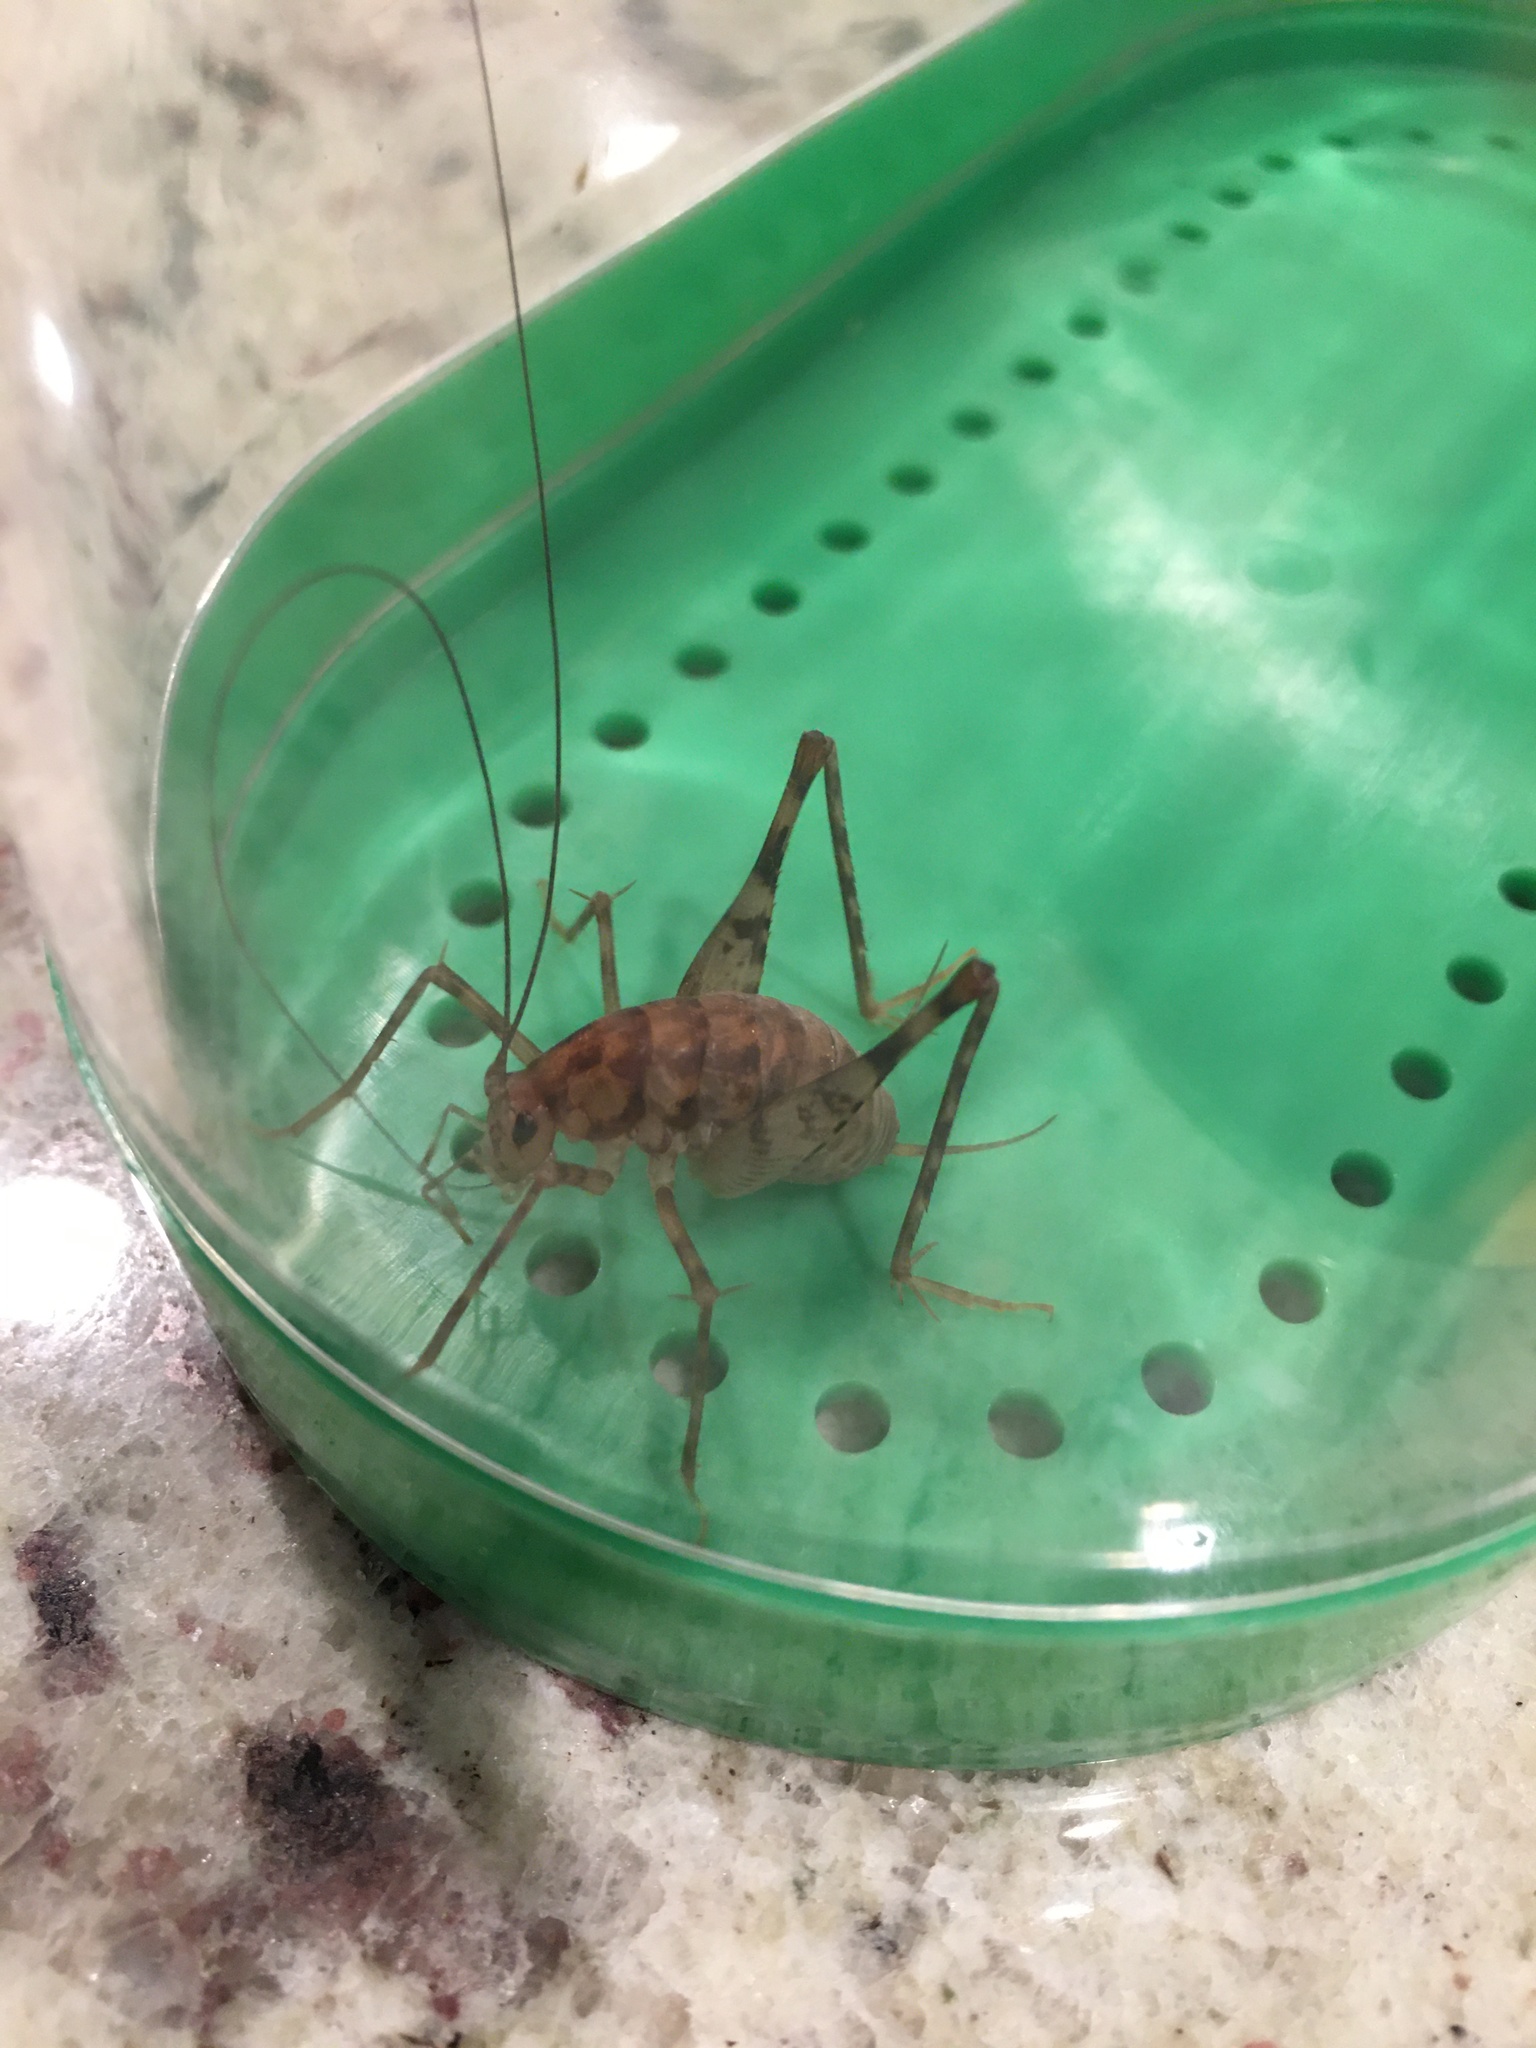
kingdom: Animalia
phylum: Arthropoda
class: Insecta
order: Orthoptera
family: Rhaphidophoridae
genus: Tachycines
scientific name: Tachycines asynamorus
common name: Greenhouse camel cricket
